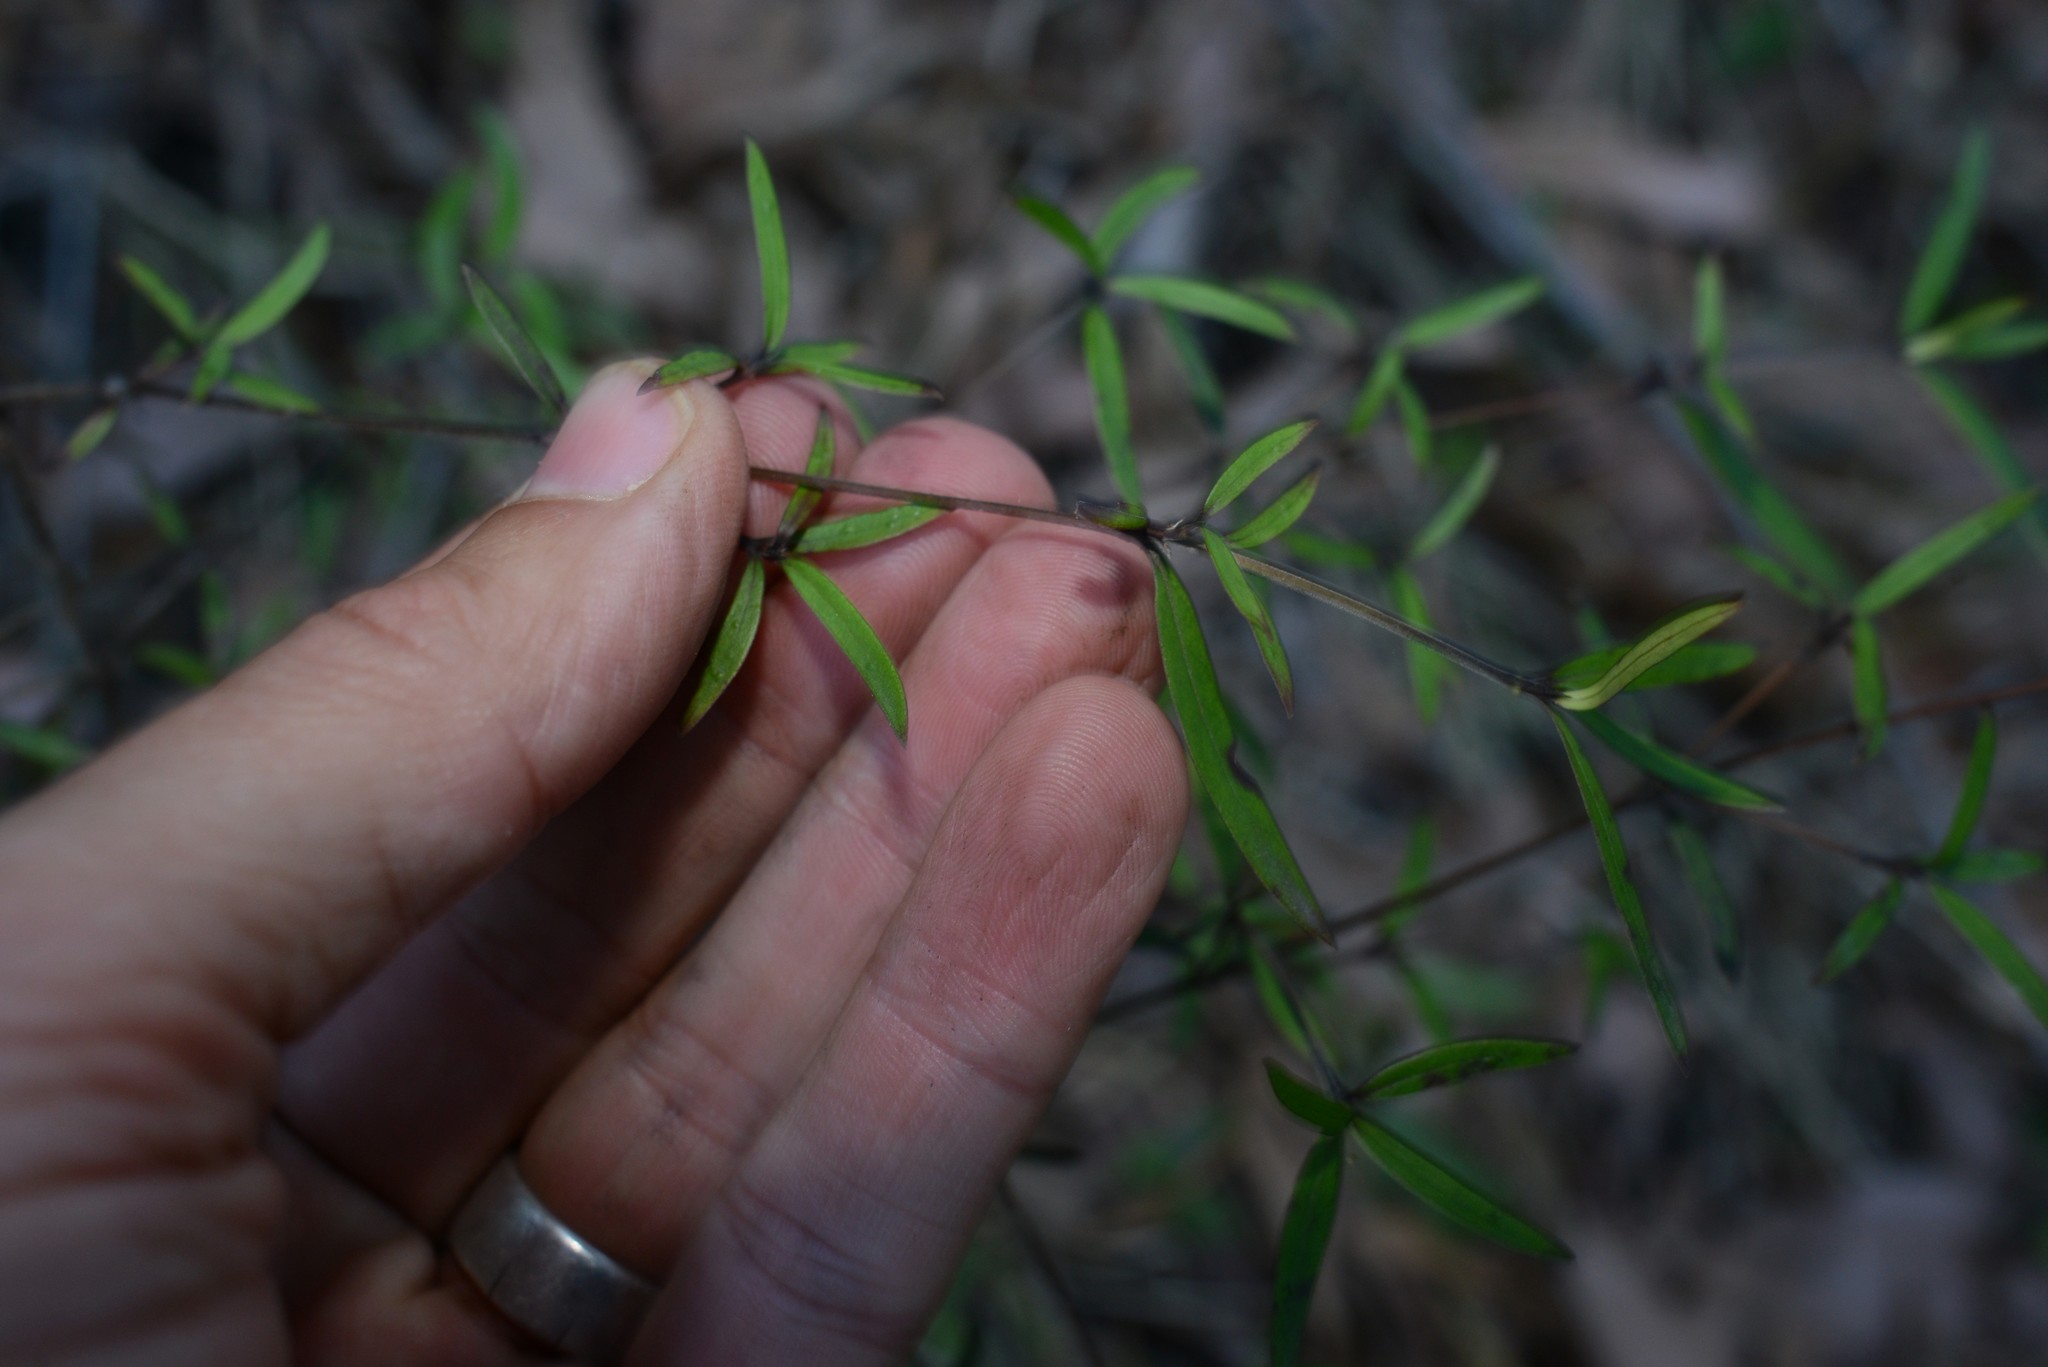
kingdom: Plantae
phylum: Tracheophyta
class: Magnoliopsida
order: Gentianales
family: Rubiaceae
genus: Coprosma
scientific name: Coprosma linariifolia
